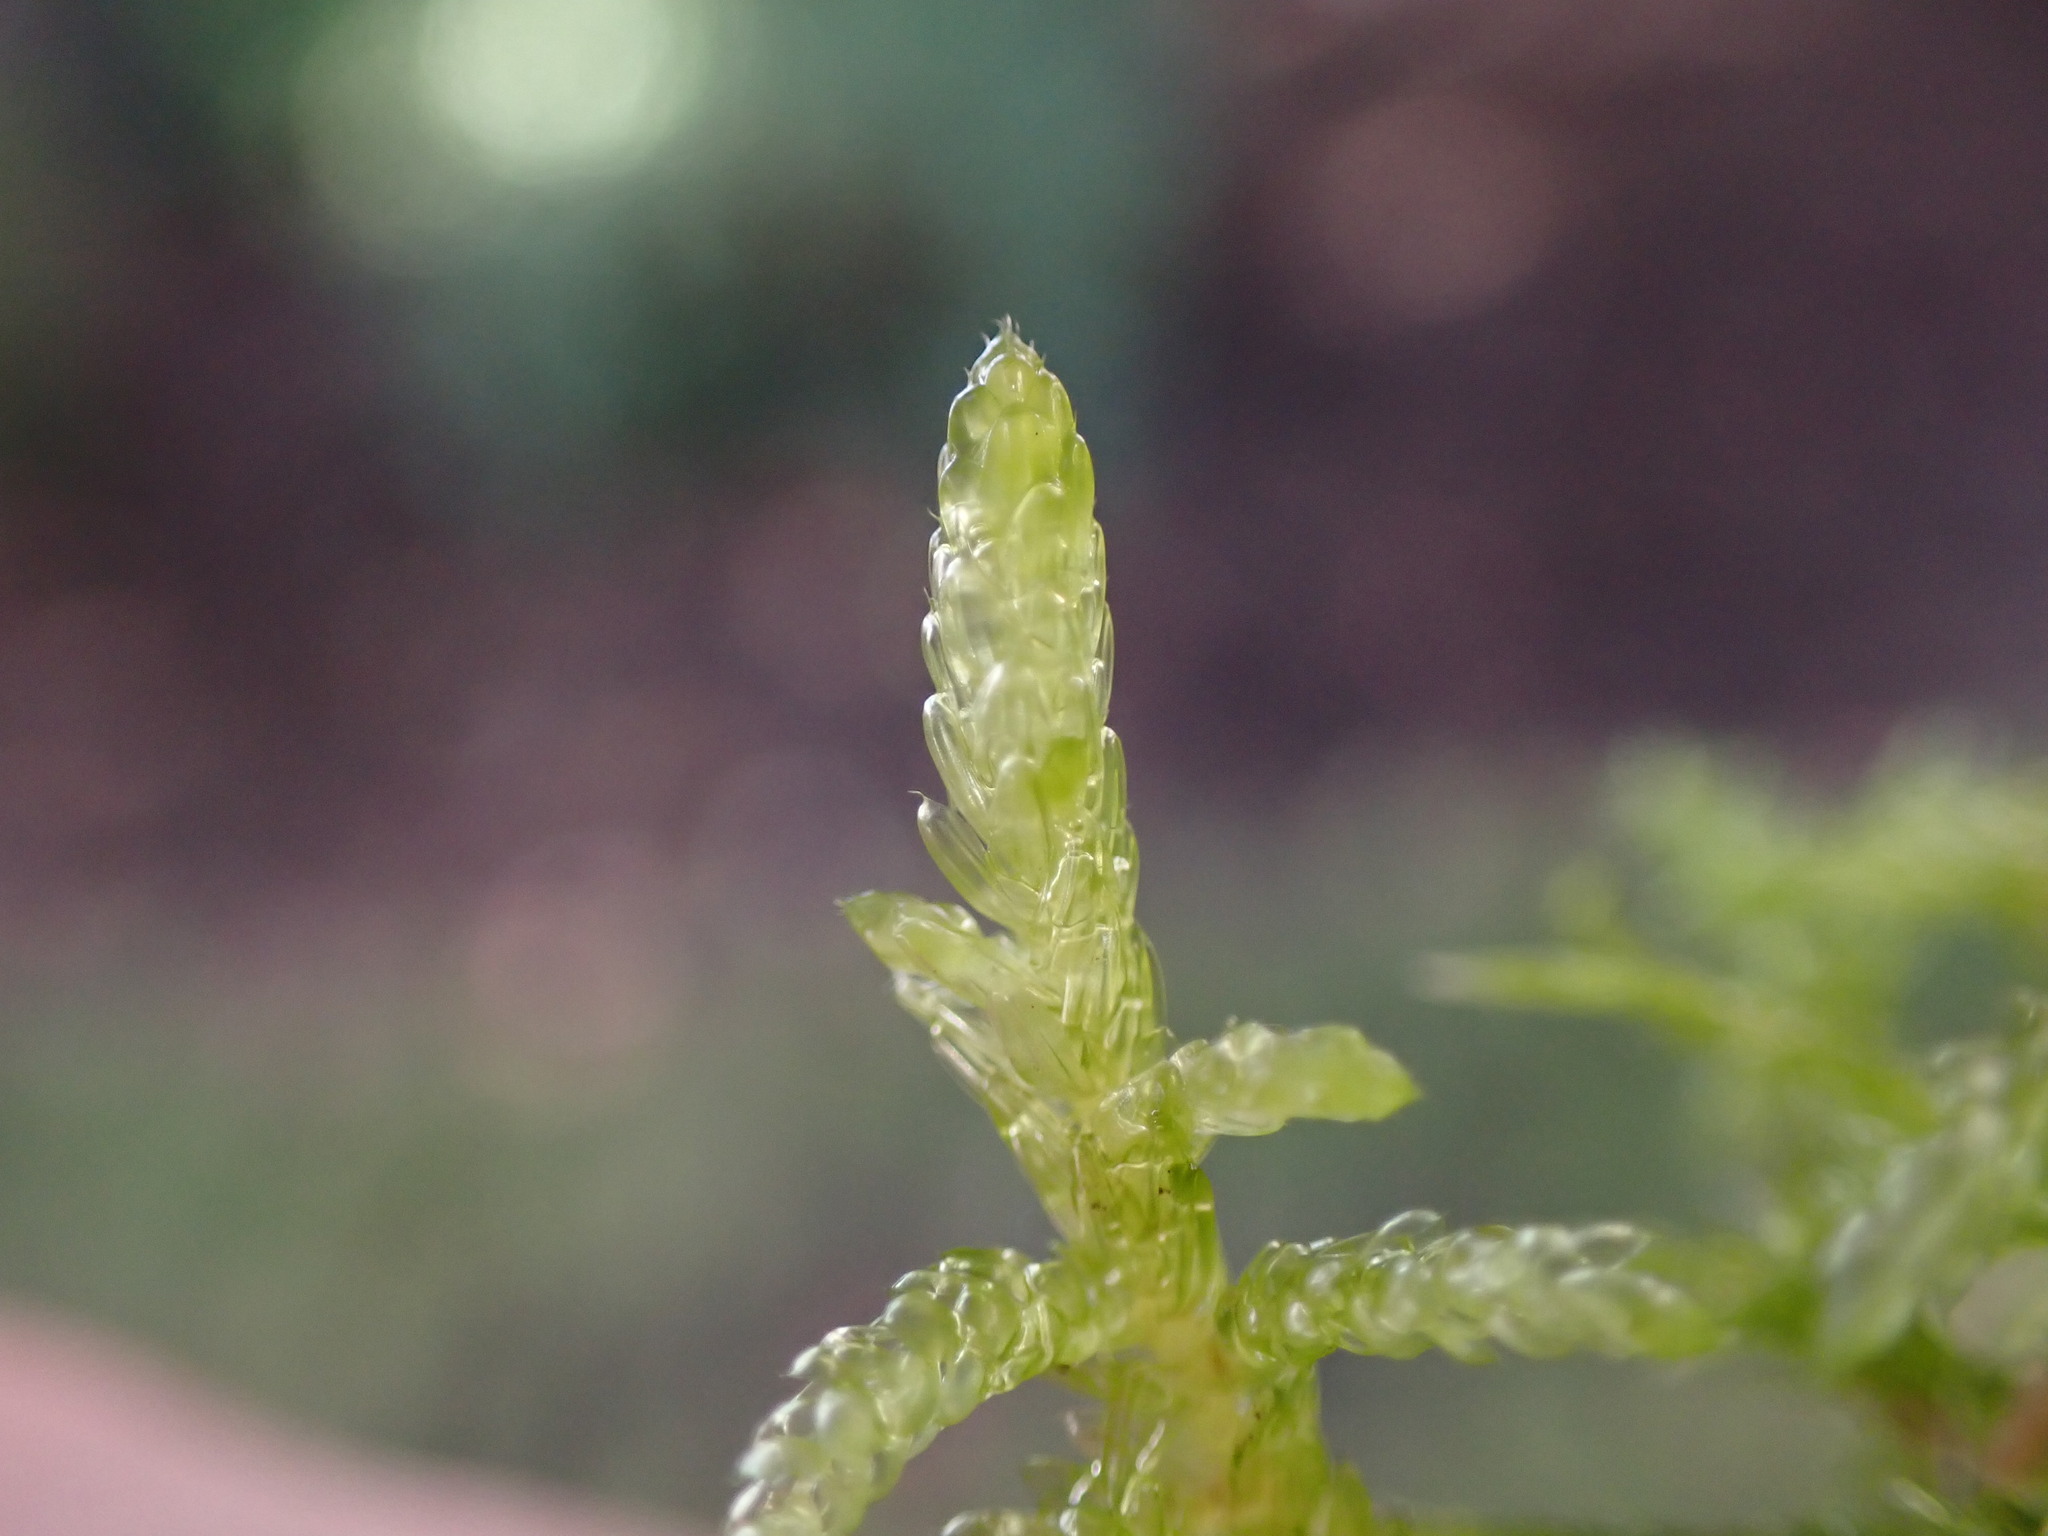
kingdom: Plantae
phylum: Bryophyta
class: Bryopsida
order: Hypnales
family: Brachytheciaceae
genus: Pseudoscleropodium
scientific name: Pseudoscleropodium purum
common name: Neat feather-moss
